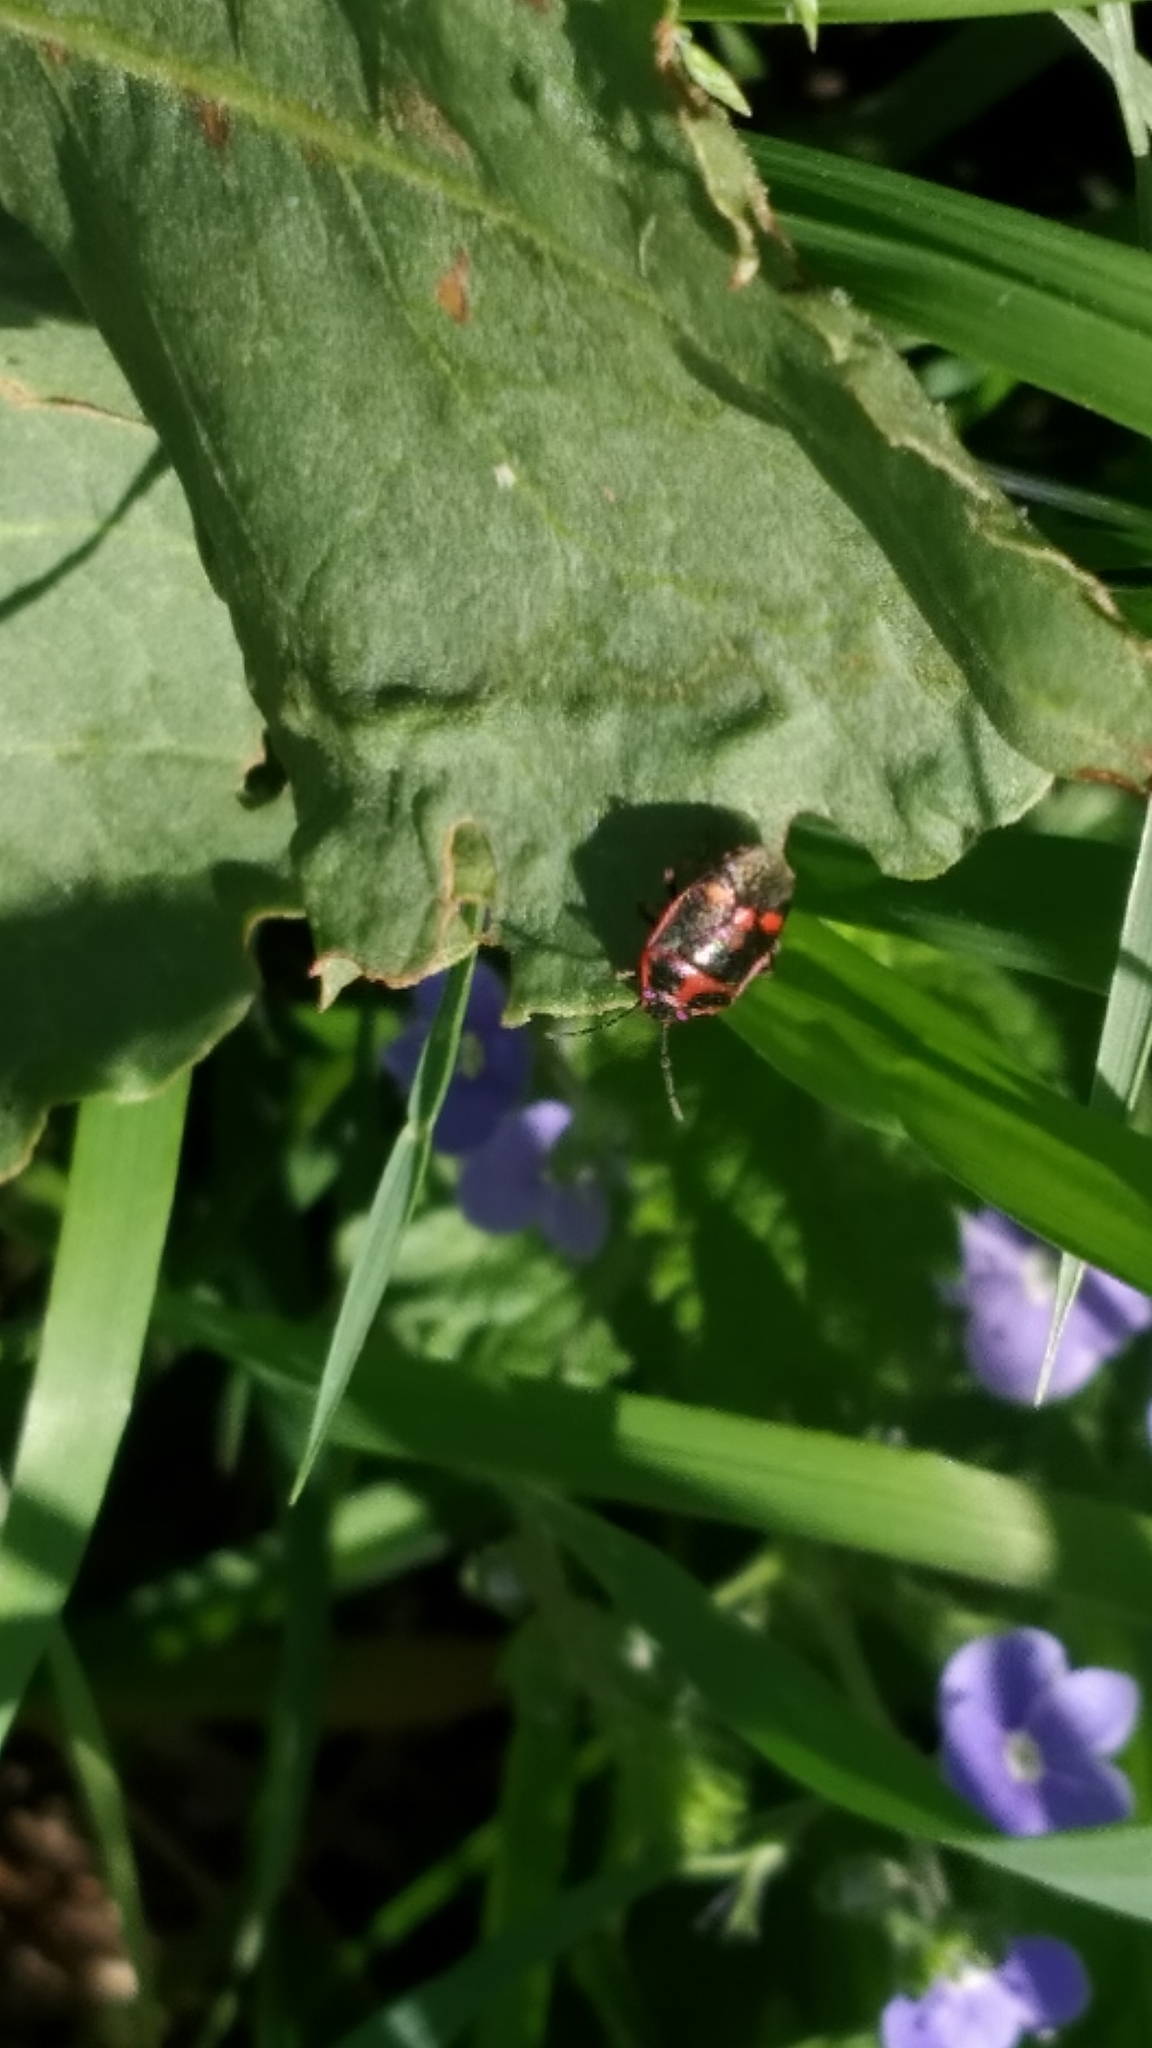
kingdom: Animalia
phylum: Arthropoda
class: Insecta
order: Hemiptera
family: Pentatomidae
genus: Eurydema
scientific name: Eurydema oleracea
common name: Cabbage bug
